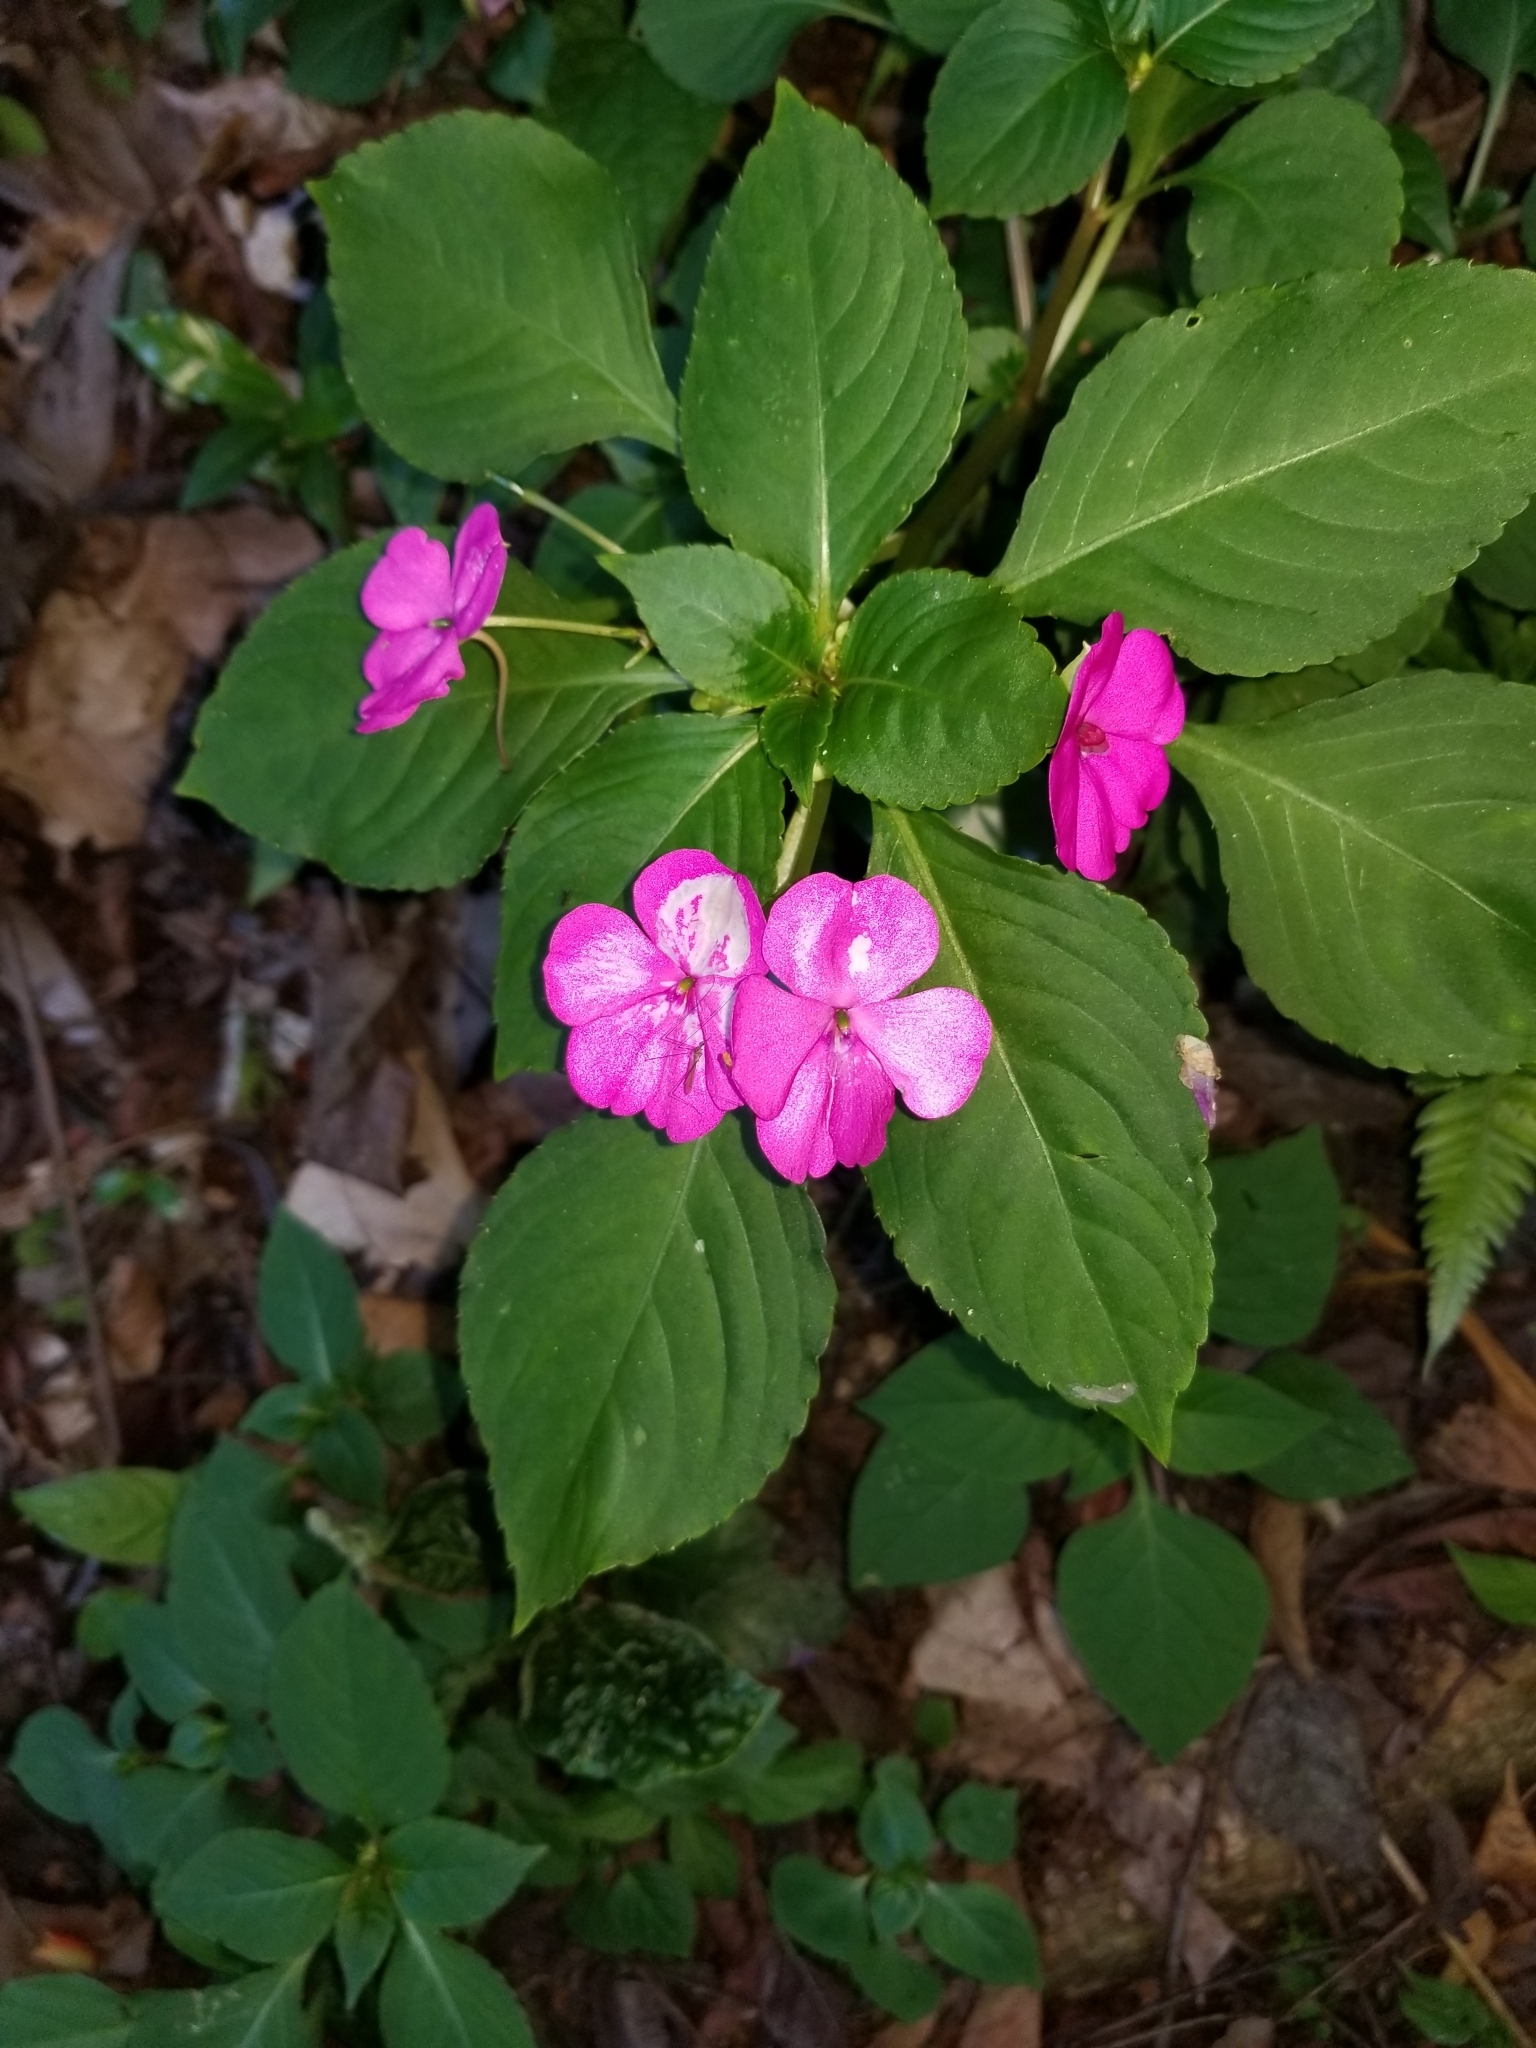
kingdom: Plantae
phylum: Tracheophyta
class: Magnoliopsida
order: Ericales
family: Balsaminaceae
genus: Impatiens
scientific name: Impatiens walleriana
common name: Buzzy lizzy
